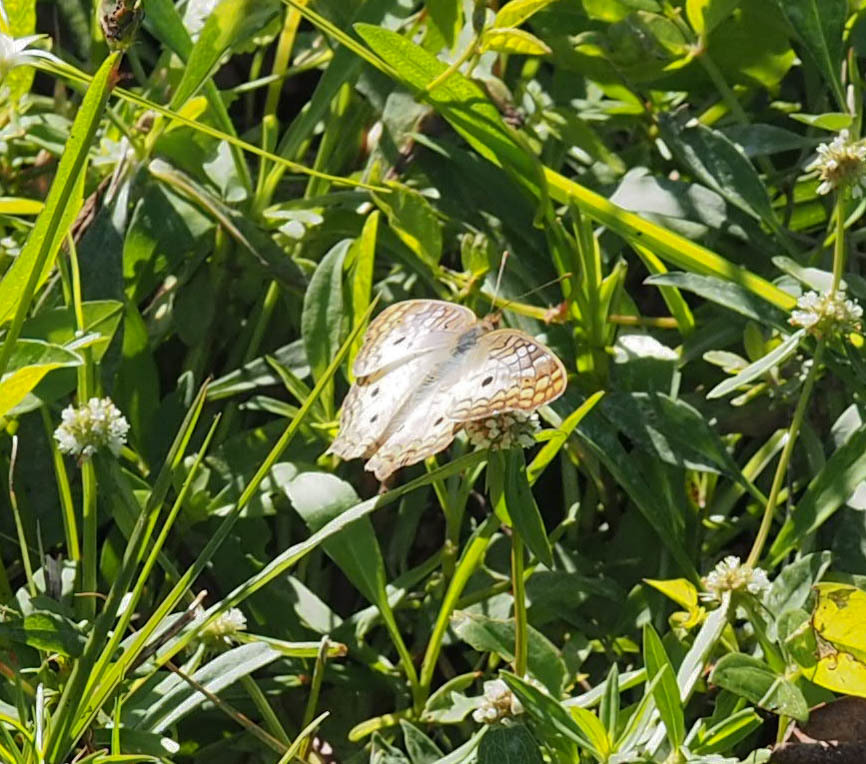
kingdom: Animalia
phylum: Arthropoda
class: Insecta
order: Lepidoptera
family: Nymphalidae
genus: Anartia
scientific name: Anartia jatrophae
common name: White peacock
